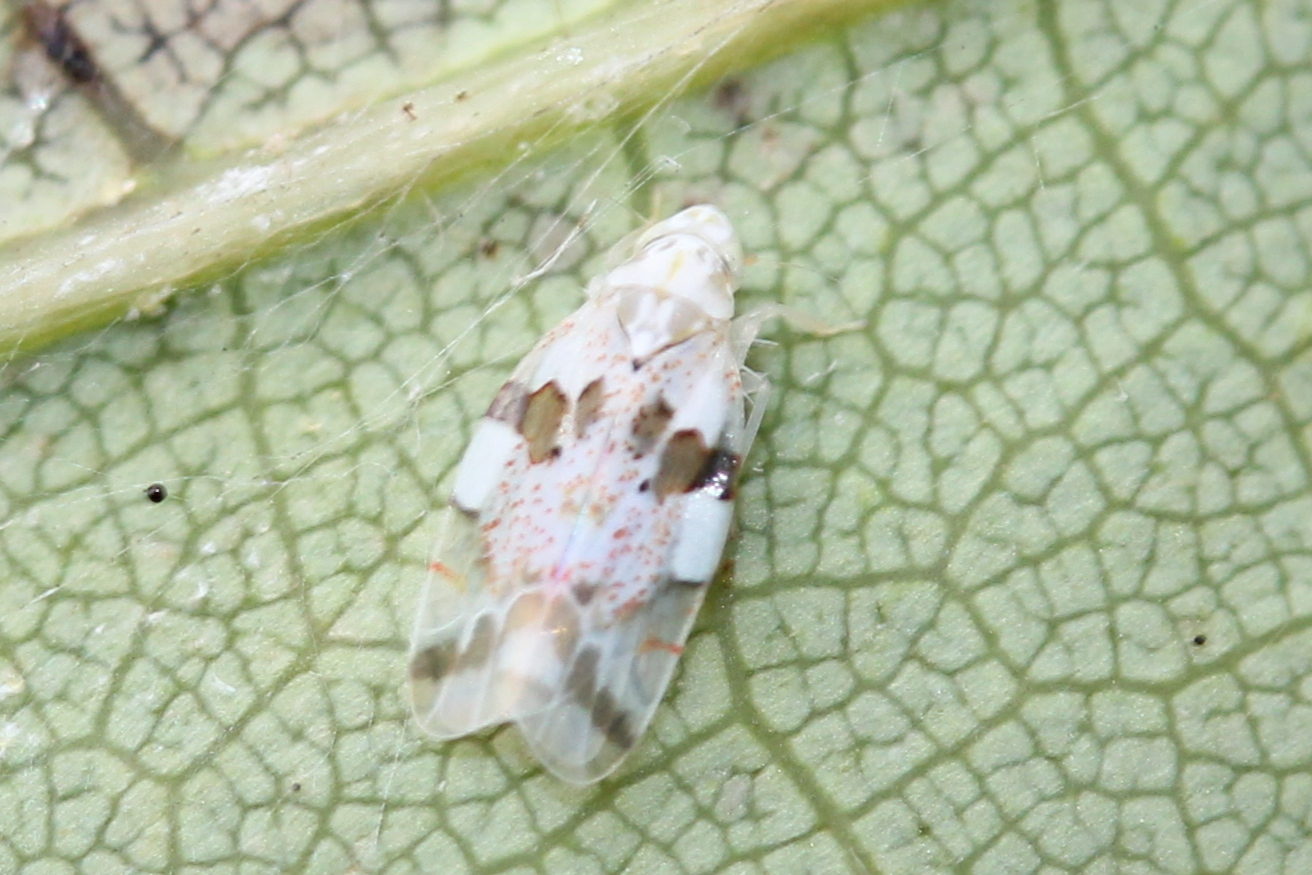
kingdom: Animalia
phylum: Arthropoda
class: Insecta
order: Hemiptera
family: Cicadellidae
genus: Hymetta
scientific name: Hymetta balteata
